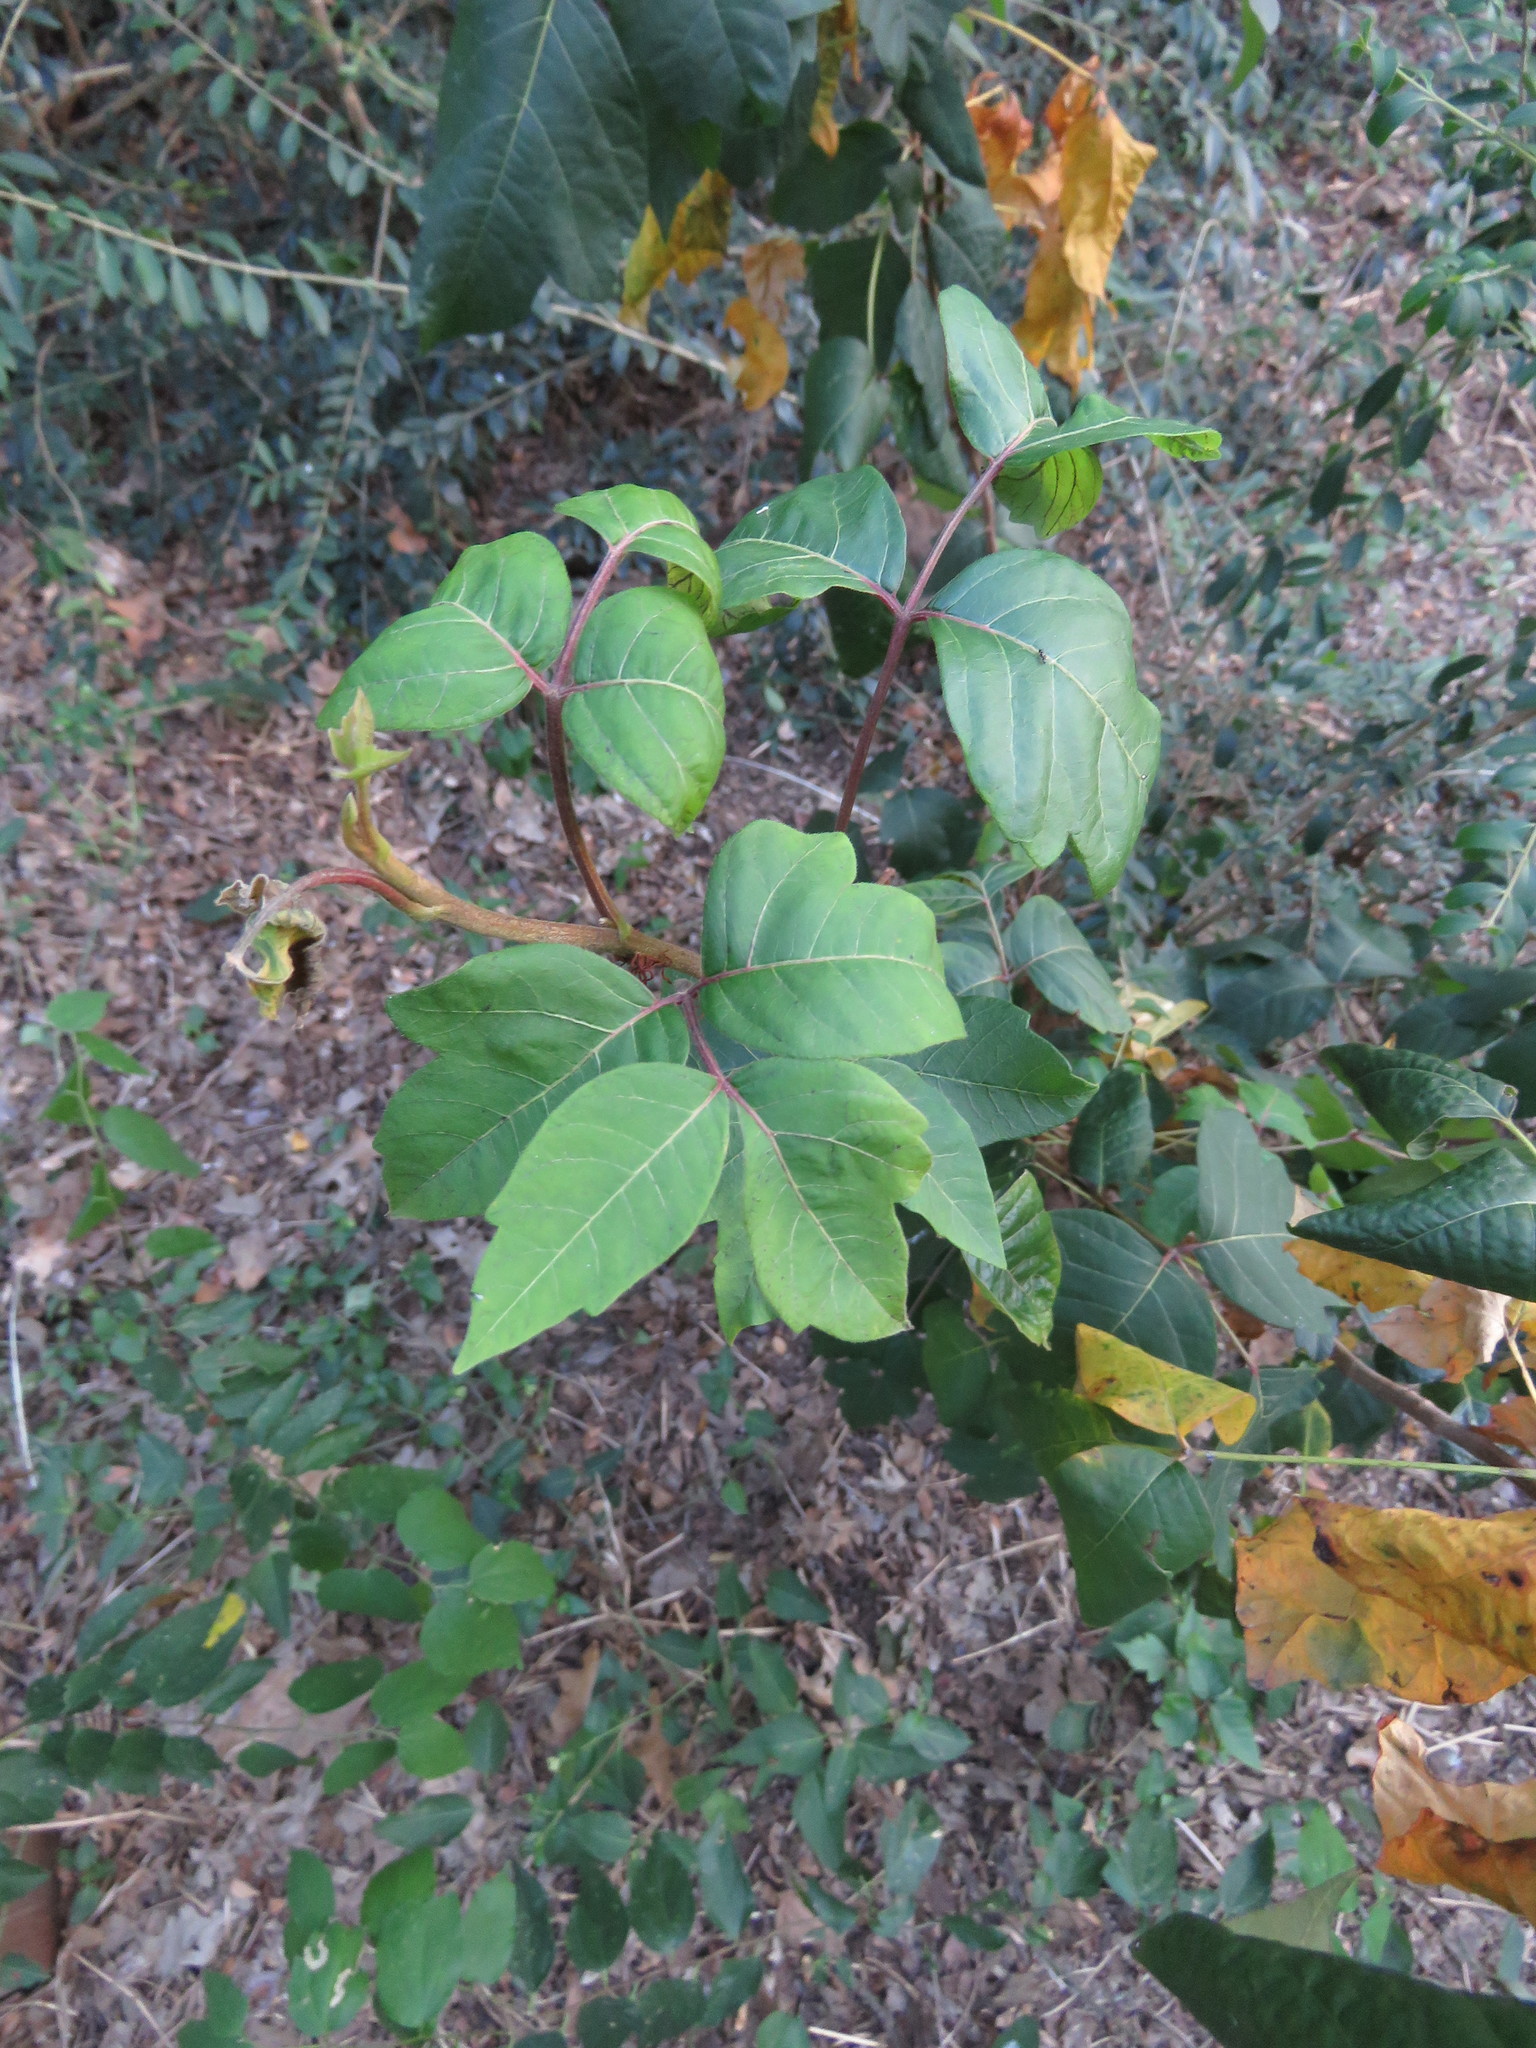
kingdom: Plantae
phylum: Tracheophyta
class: Magnoliopsida
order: Sapindales
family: Anacardiaceae
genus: Toxicodendron
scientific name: Toxicodendron radicans
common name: Poison ivy
